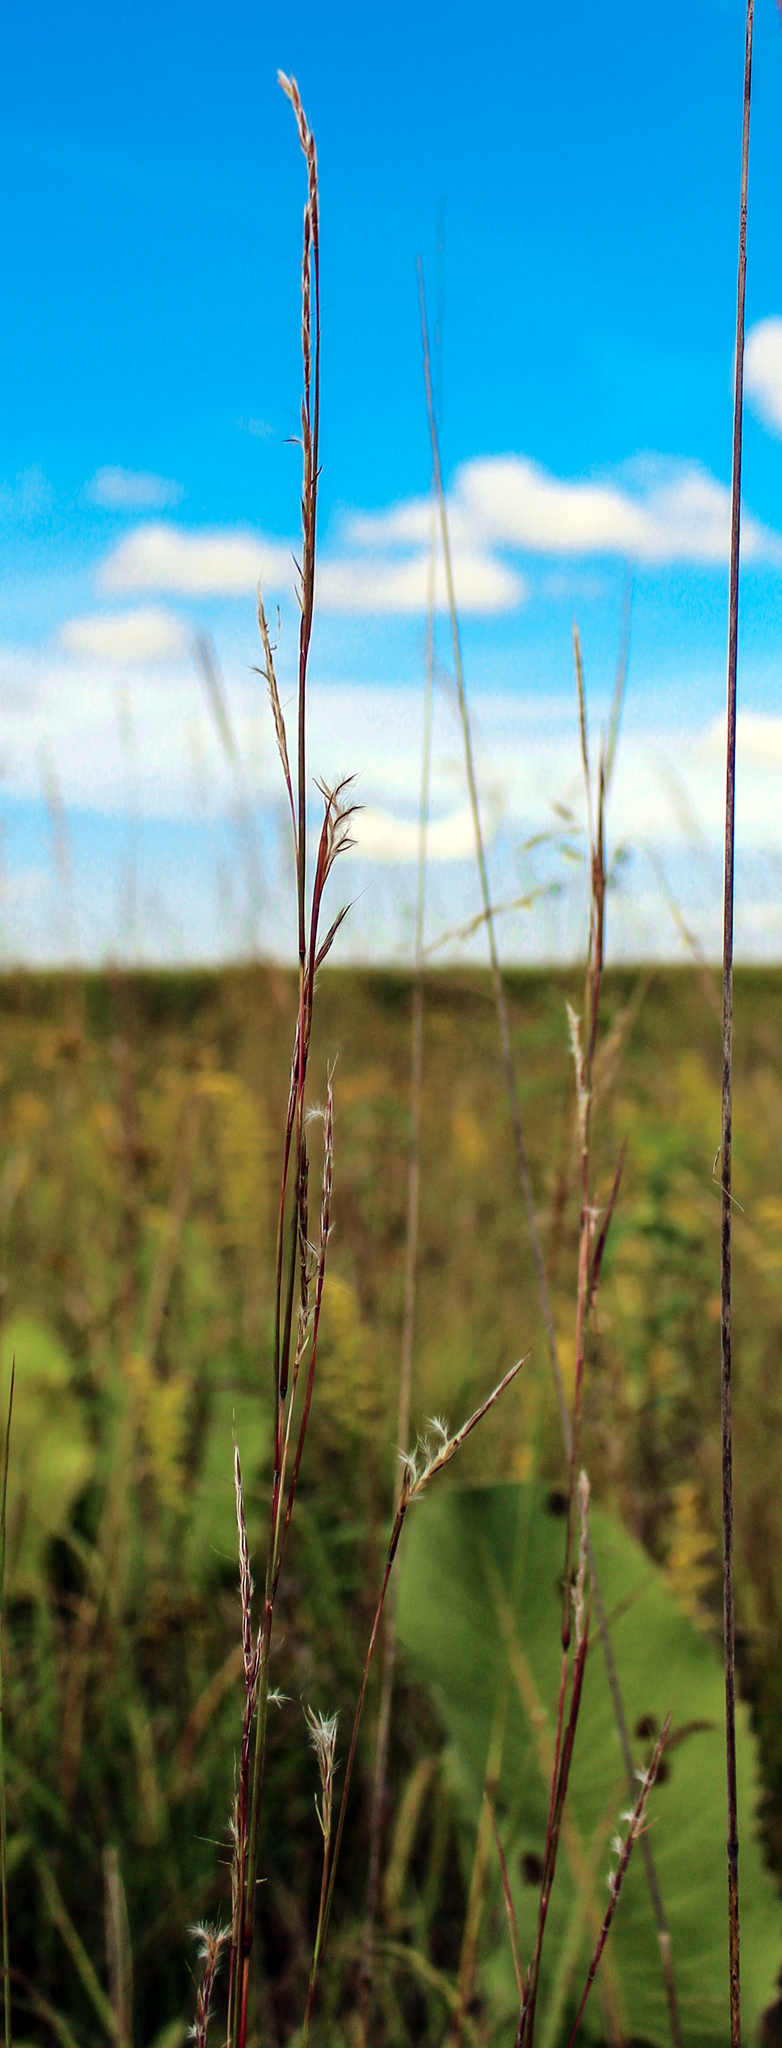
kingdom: Plantae
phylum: Tracheophyta
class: Liliopsida
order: Poales
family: Poaceae
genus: Schizachyrium
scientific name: Schizachyrium scoparium
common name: Little bluestem
